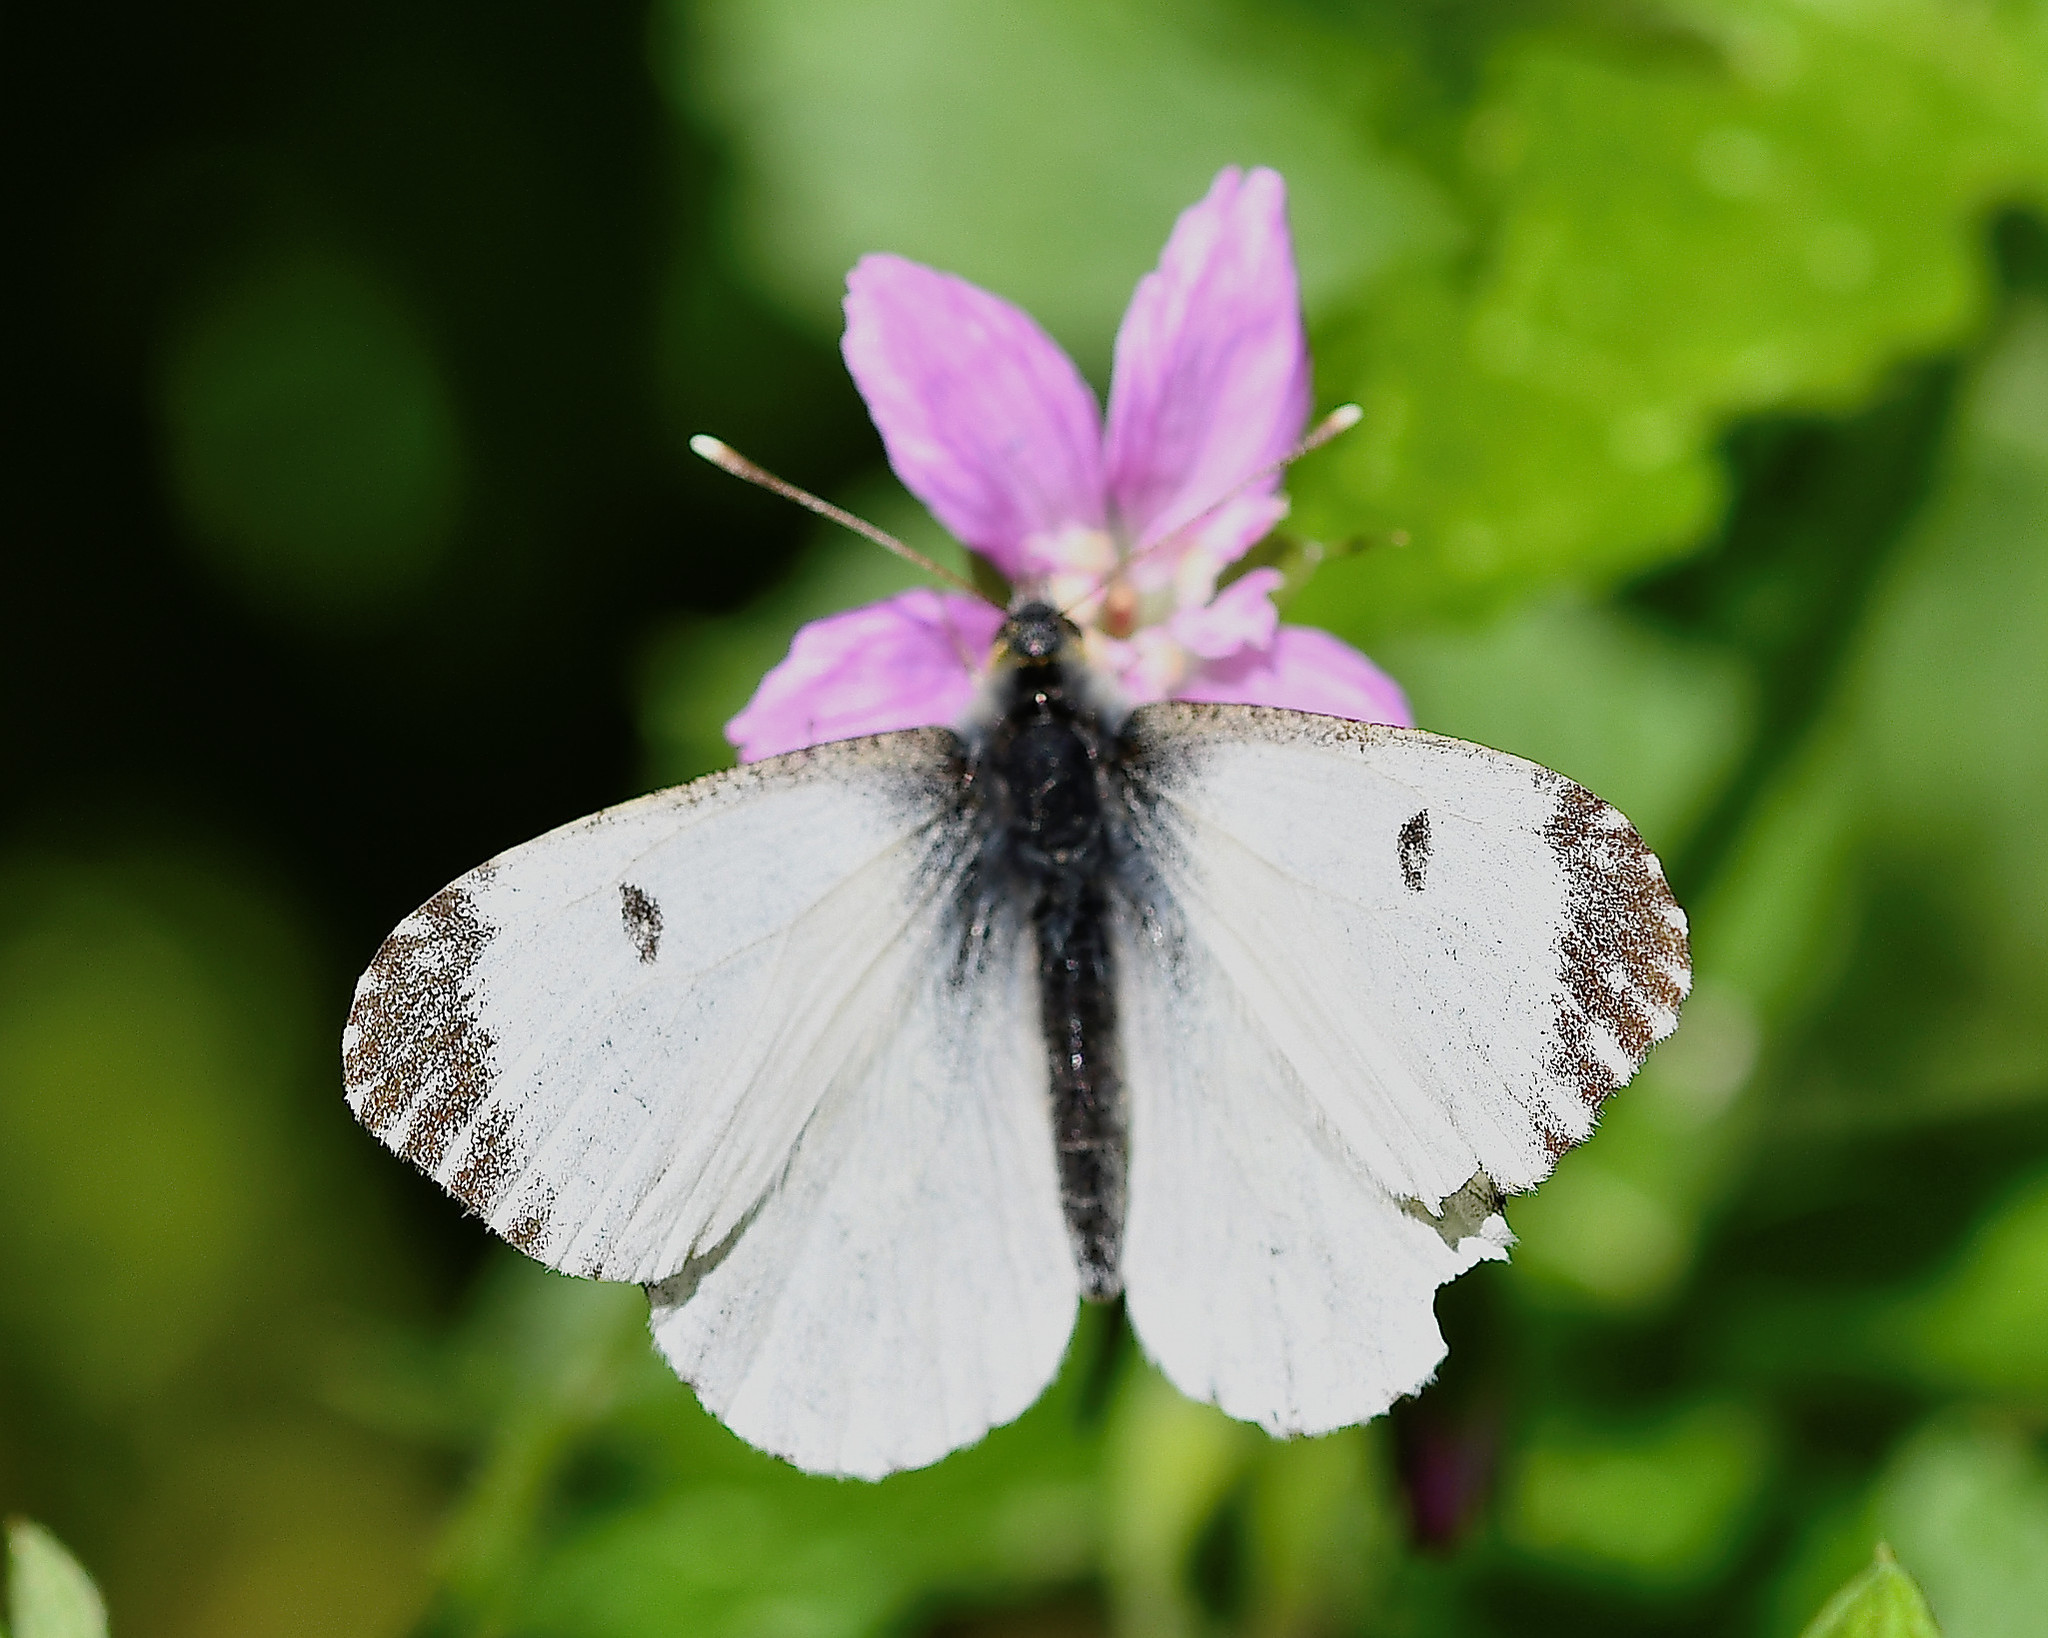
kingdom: Animalia
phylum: Arthropoda
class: Insecta
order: Lepidoptera
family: Pieridae
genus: Anthocharis
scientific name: Anthocharis cardamines
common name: Orange-tip
